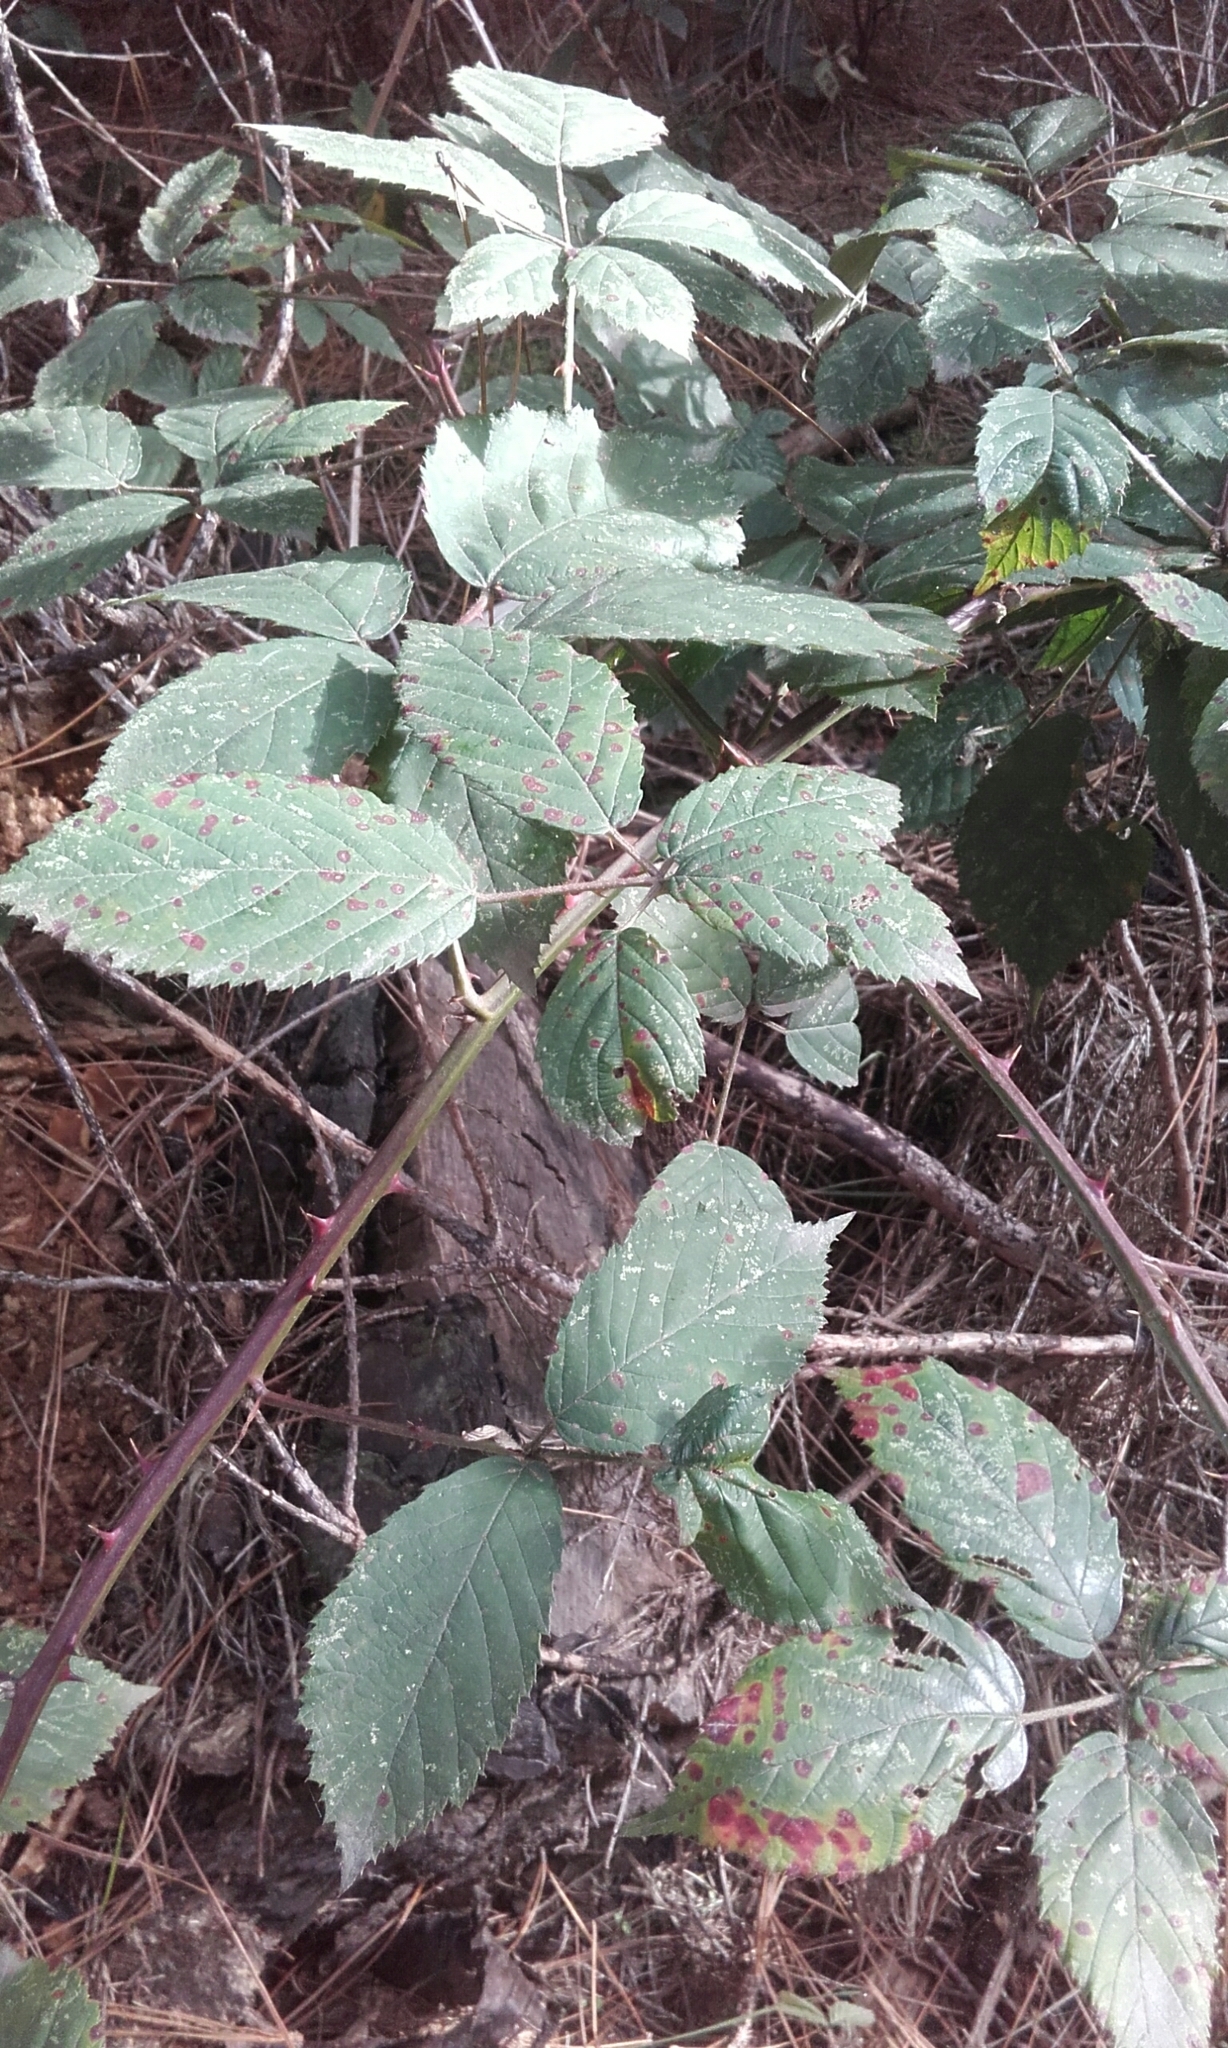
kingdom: Plantae
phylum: Tracheophyta
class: Magnoliopsida
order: Rosales
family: Rosaceae
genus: Rubus
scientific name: Rubus
